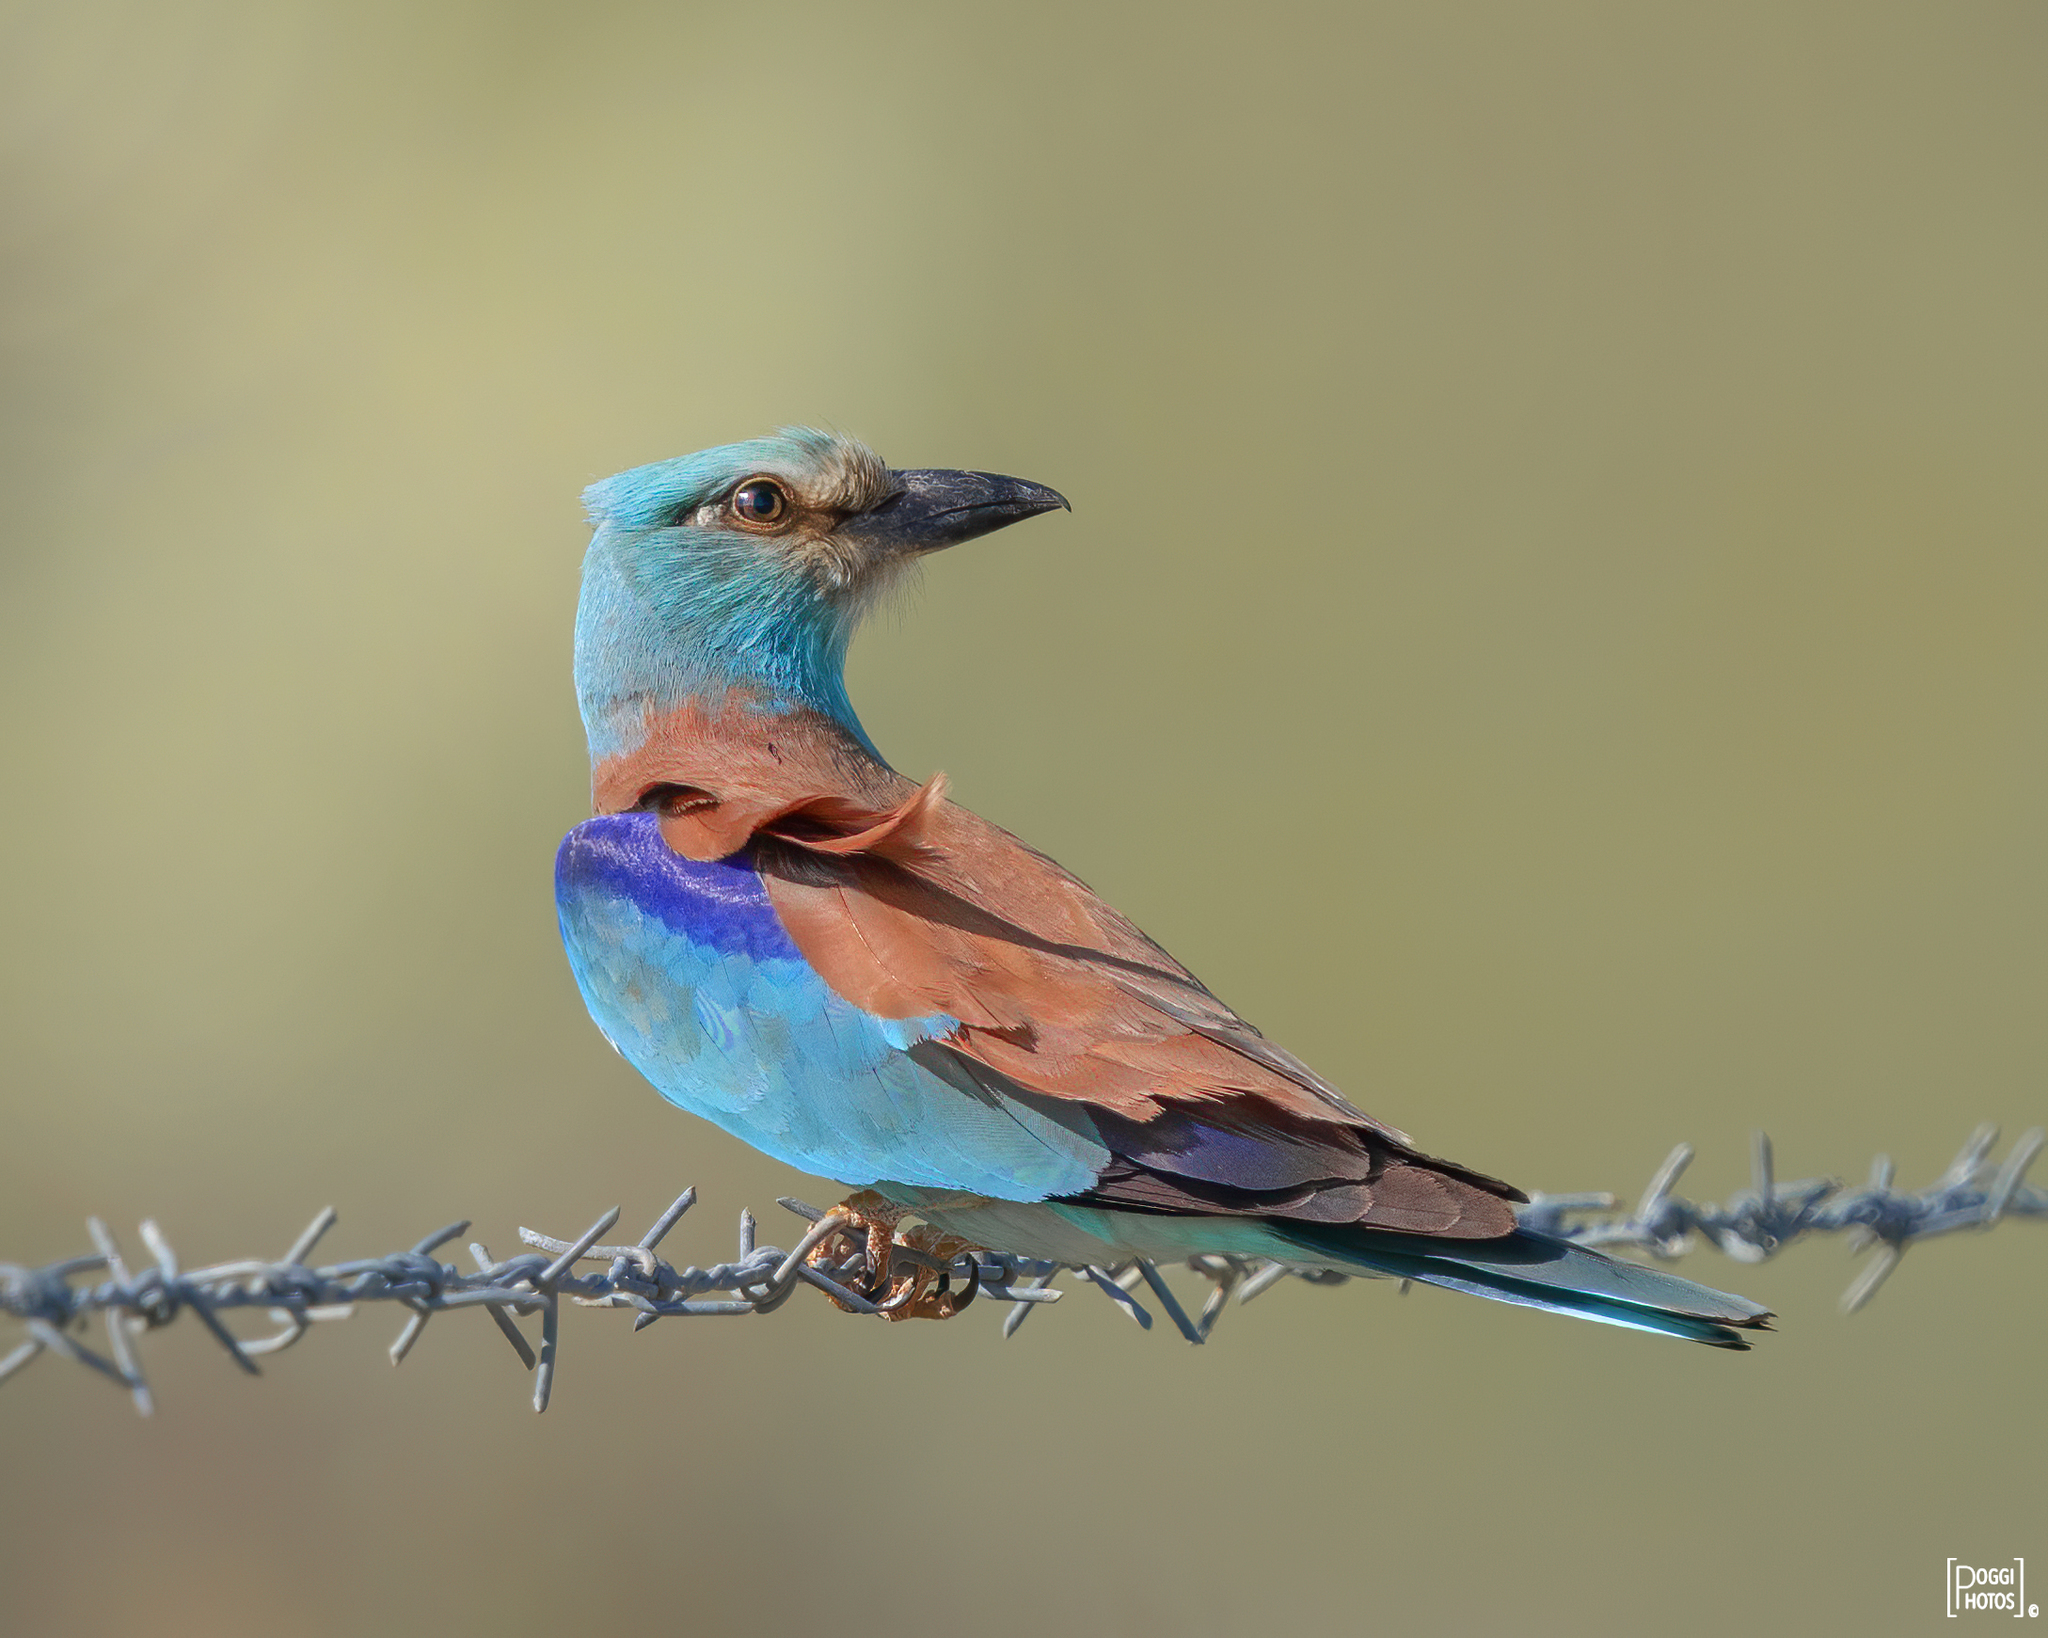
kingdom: Animalia
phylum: Chordata
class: Aves
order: Coraciiformes
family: Coraciidae
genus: Coracias
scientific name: Coracias garrulus
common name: European roller
